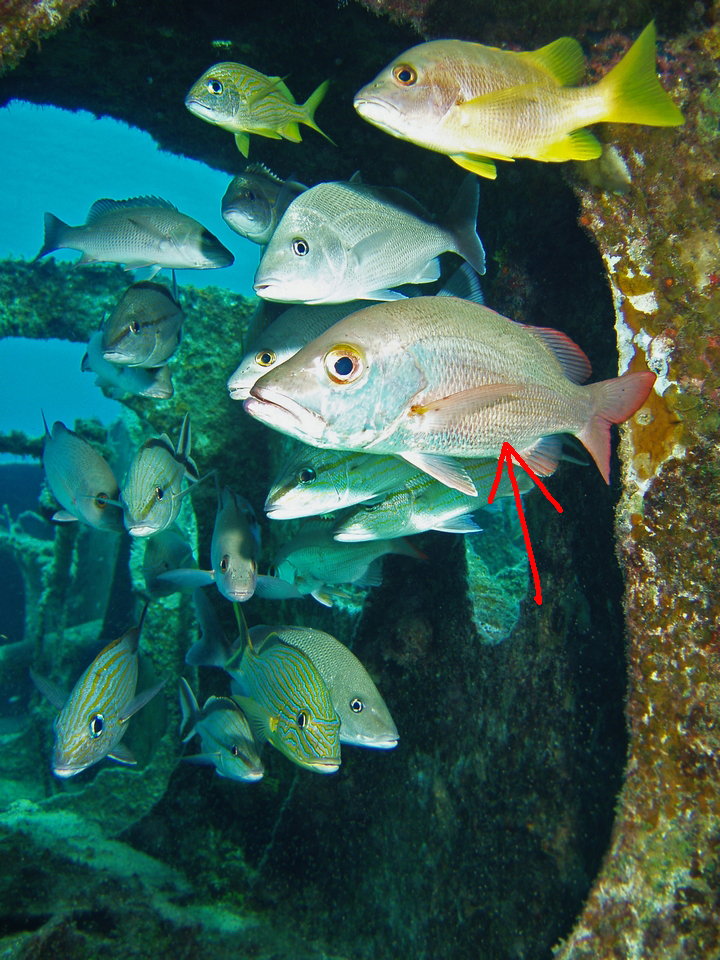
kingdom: Animalia
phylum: Chordata
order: Perciformes
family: Lutjanidae
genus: Lutjanus
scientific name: Lutjanus mahogoni
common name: Spot snapper
